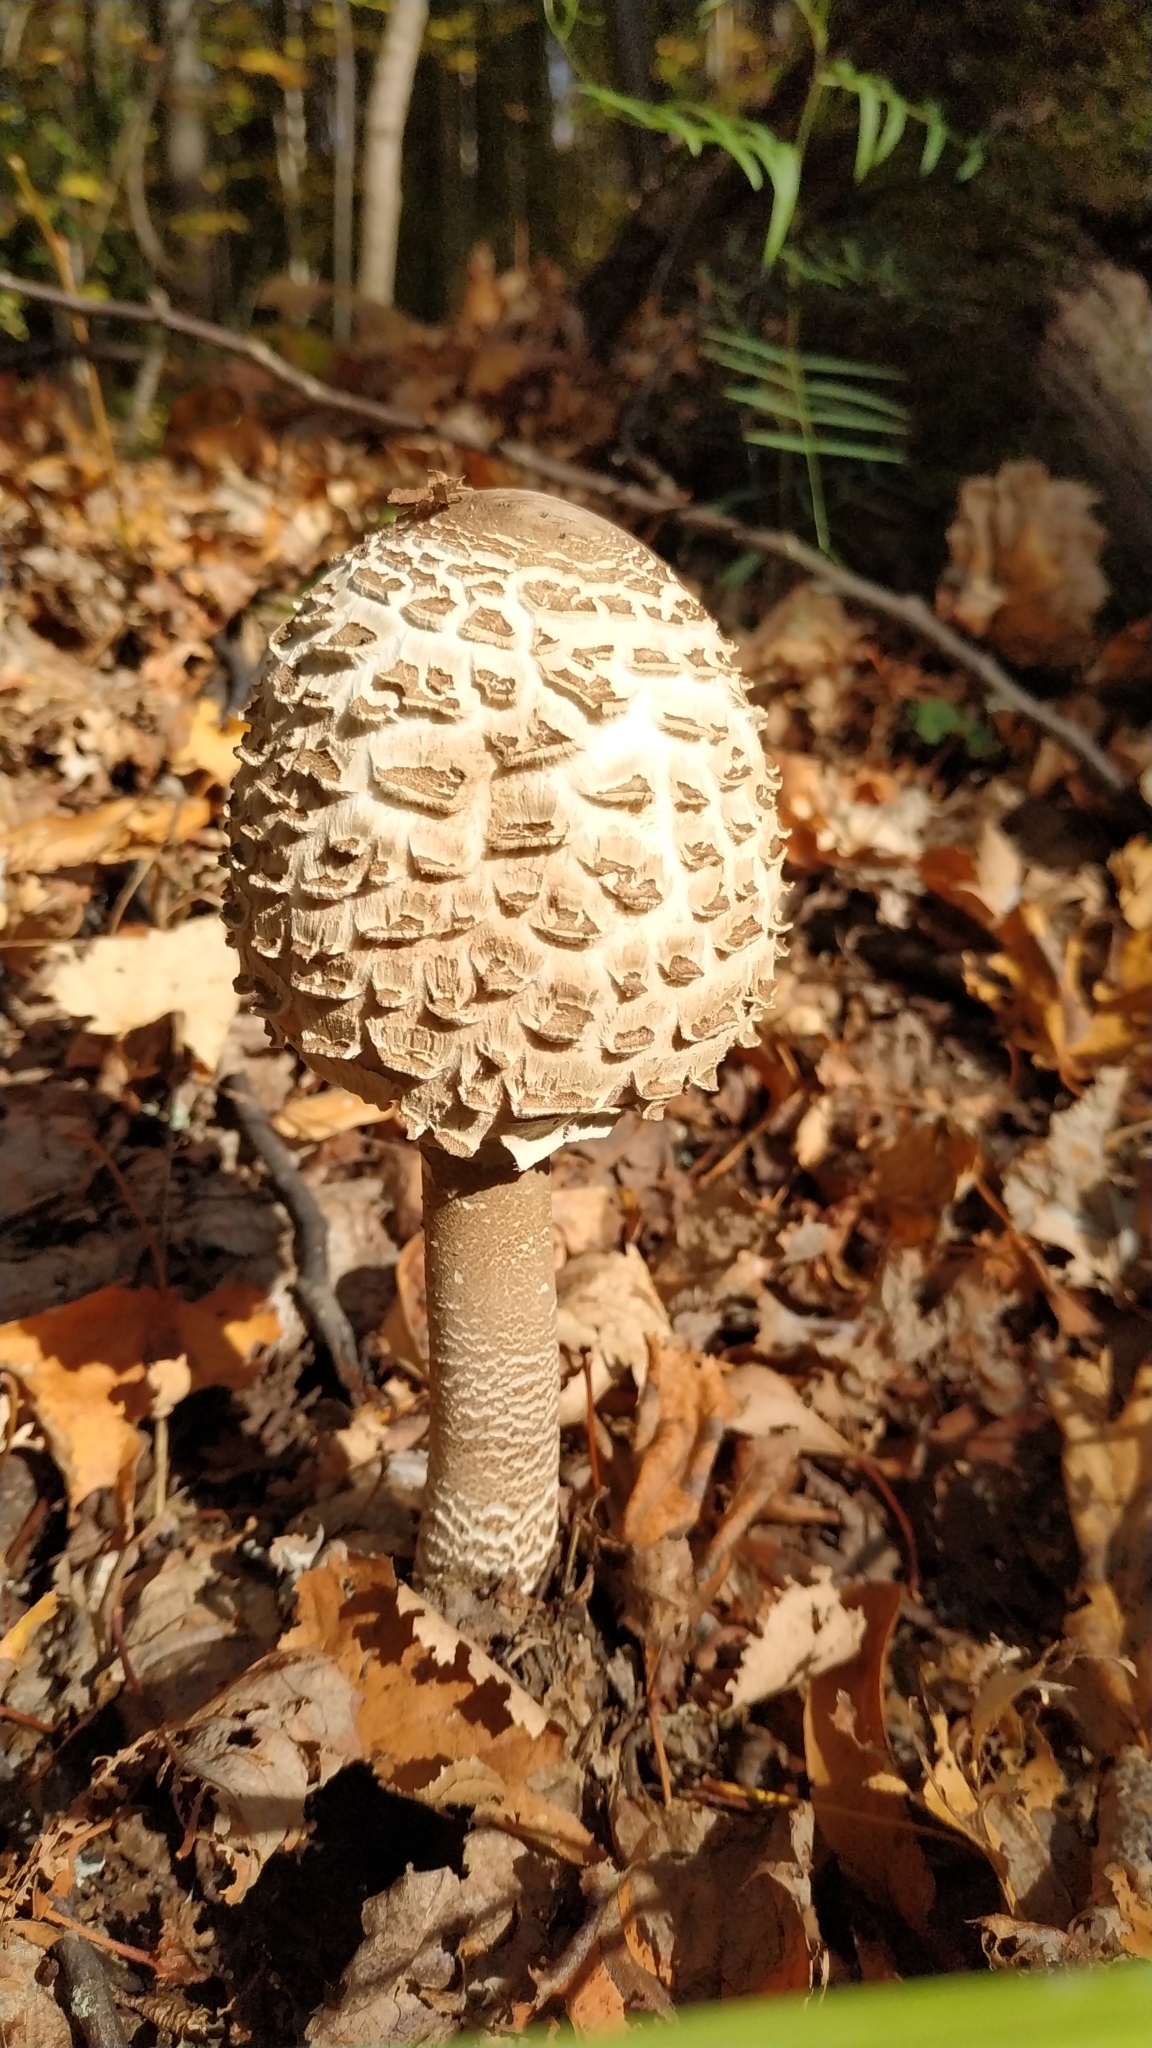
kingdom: Fungi
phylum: Basidiomycota
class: Agaricomycetes
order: Agaricales
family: Agaricaceae
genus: Macrolepiota
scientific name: Macrolepiota procera
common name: Parasol
